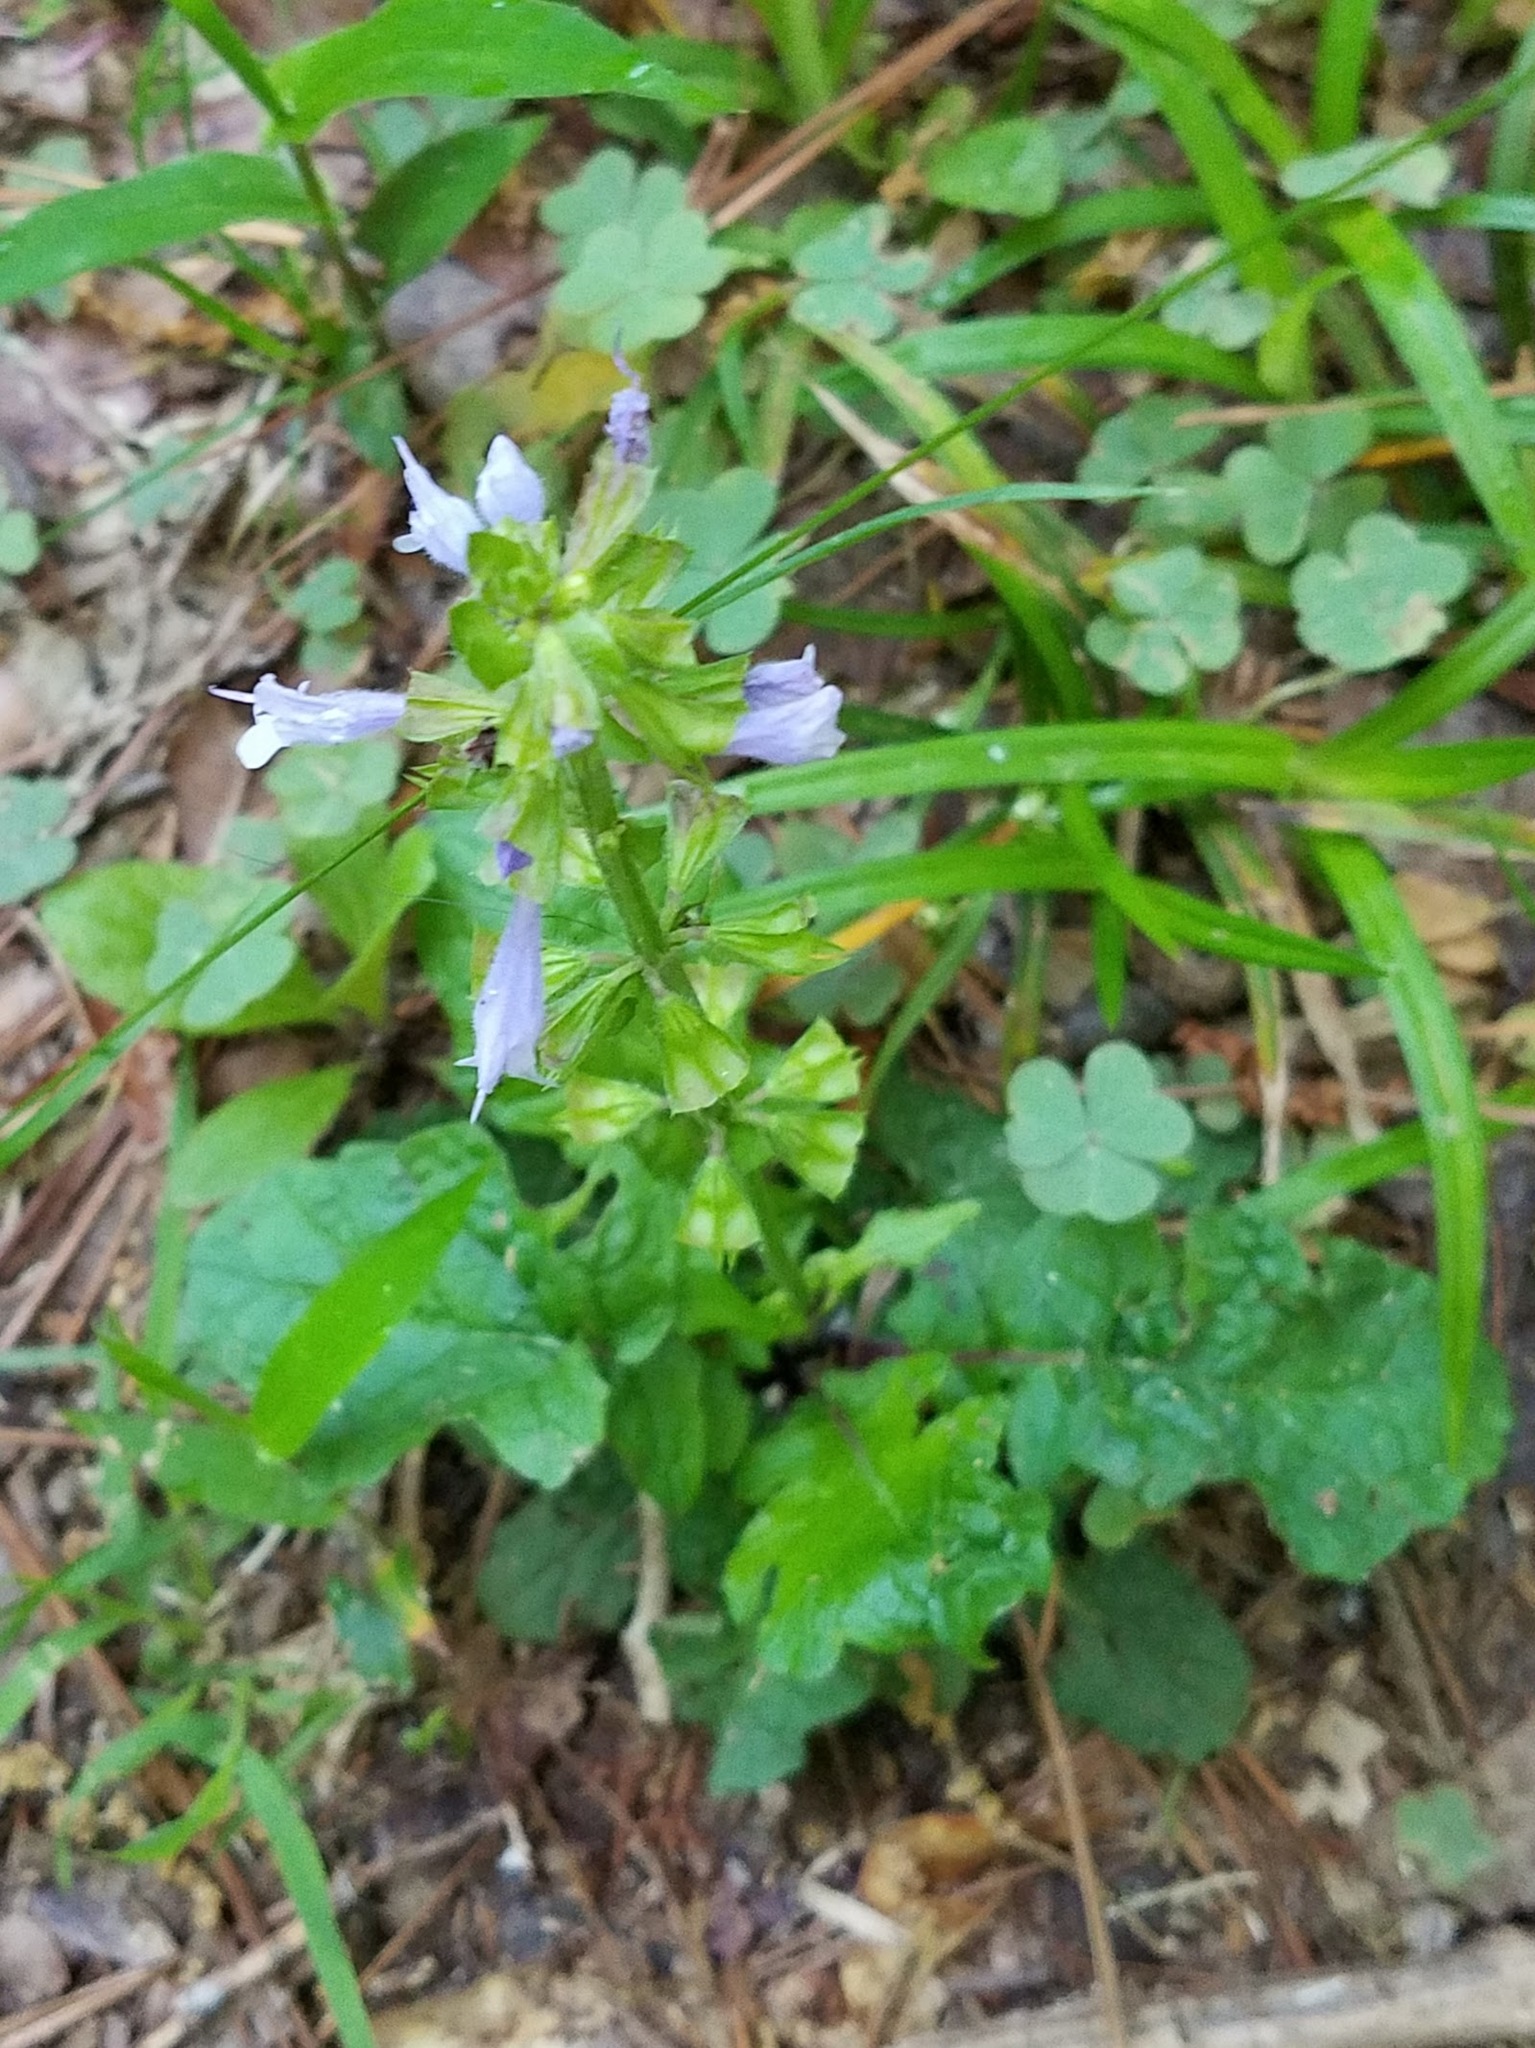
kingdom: Plantae
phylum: Tracheophyta
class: Magnoliopsida
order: Lamiales
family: Lamiaceae
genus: Salvia
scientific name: Salvia lyrata
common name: Cancerweed
